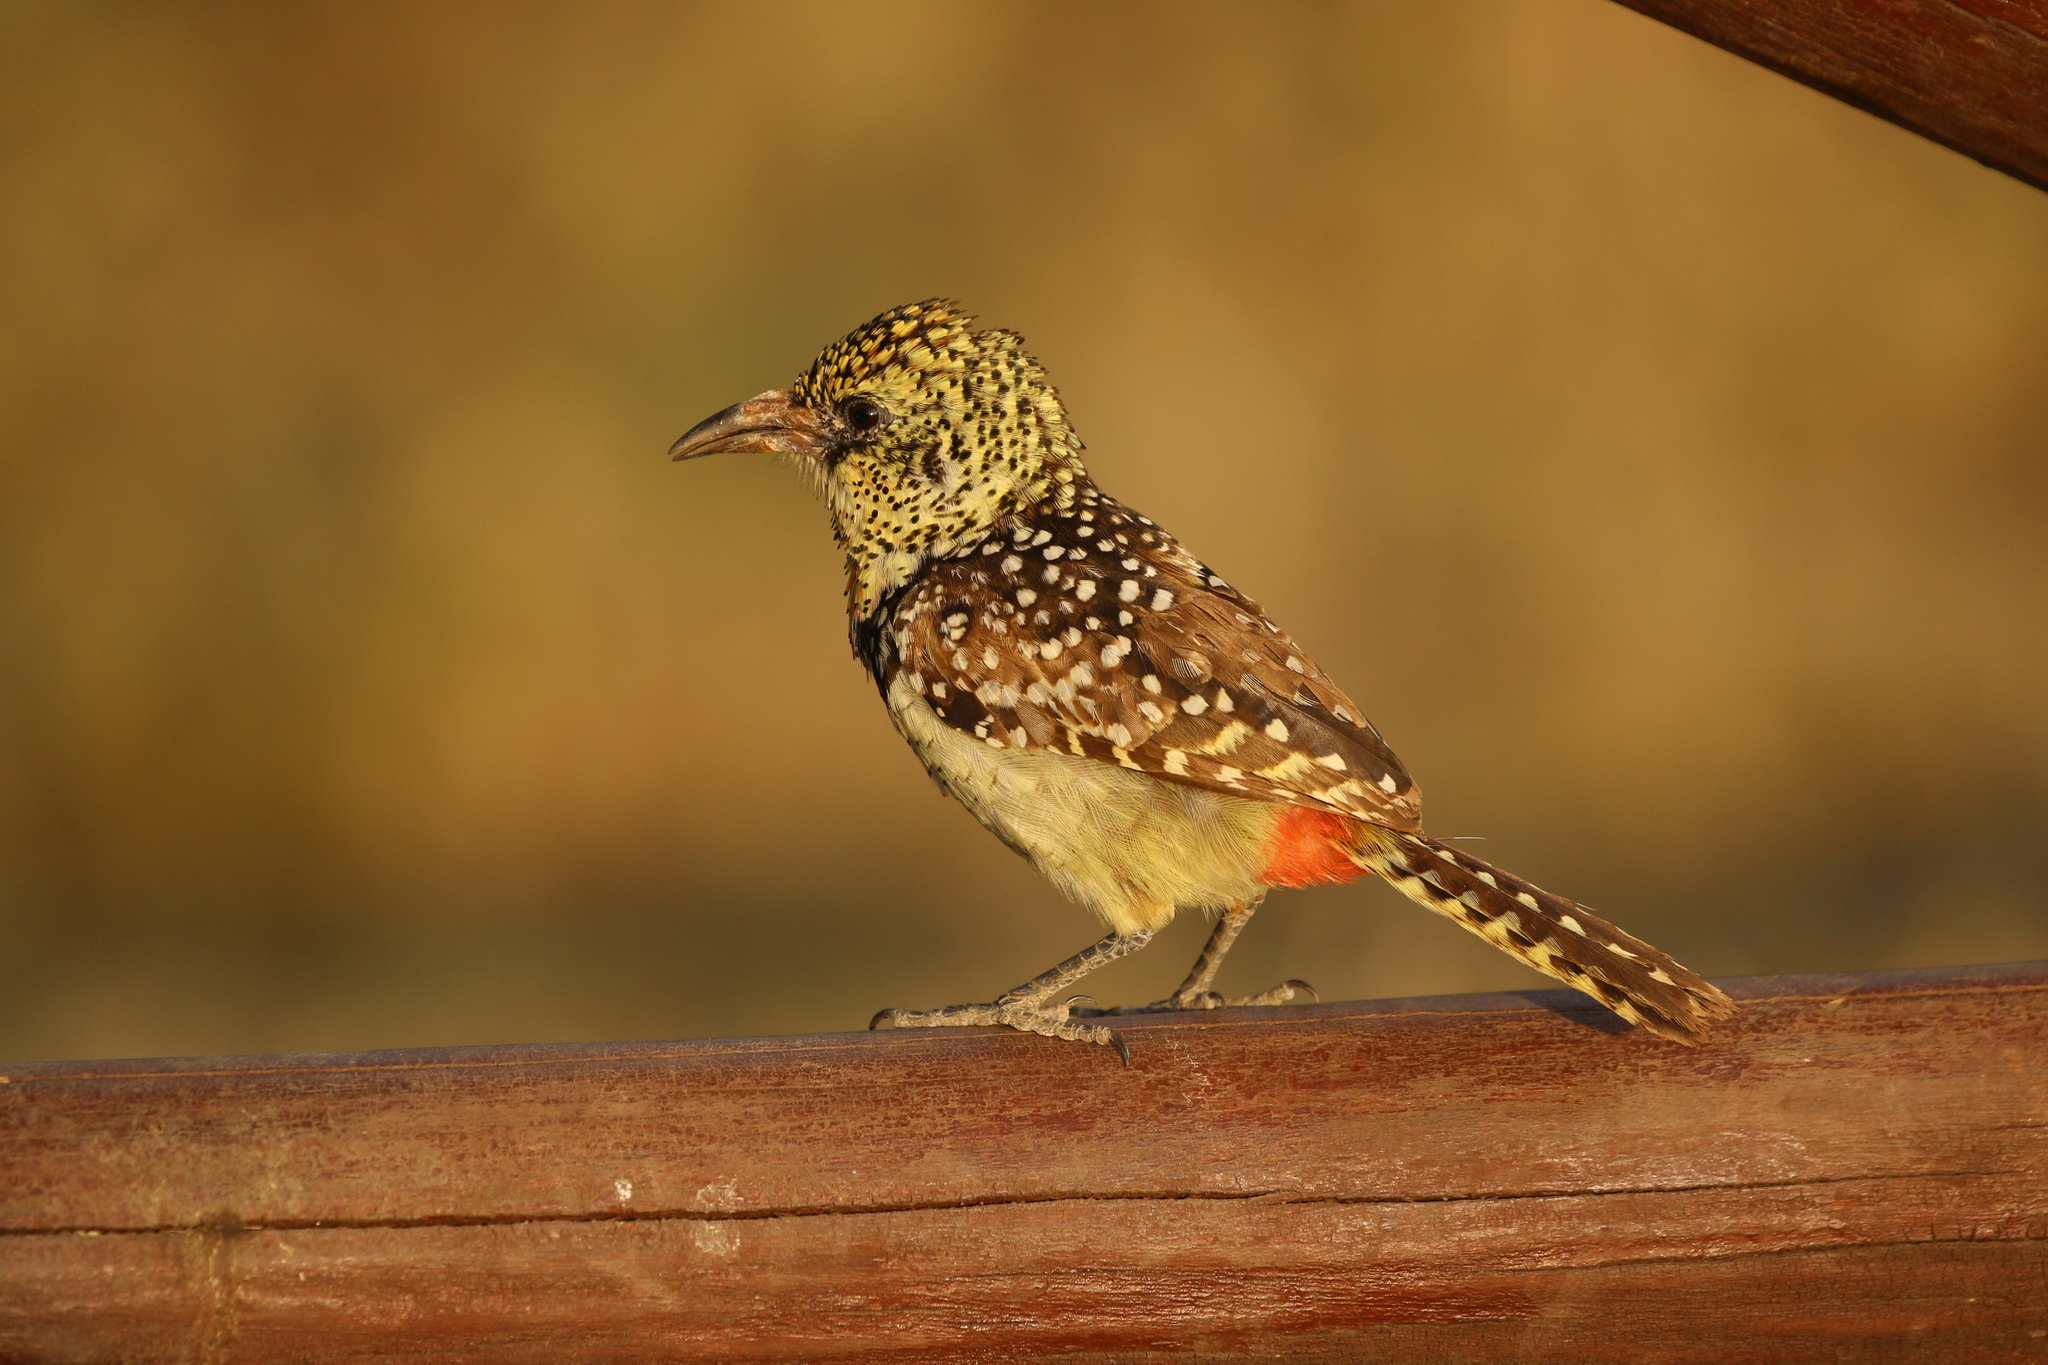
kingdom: Animalia
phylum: Chordata
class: Aves
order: Piciformes
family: Lybiidae
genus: Trachyphonus
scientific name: Trachyphonus darnaudii
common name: D'arnaud's barbet
